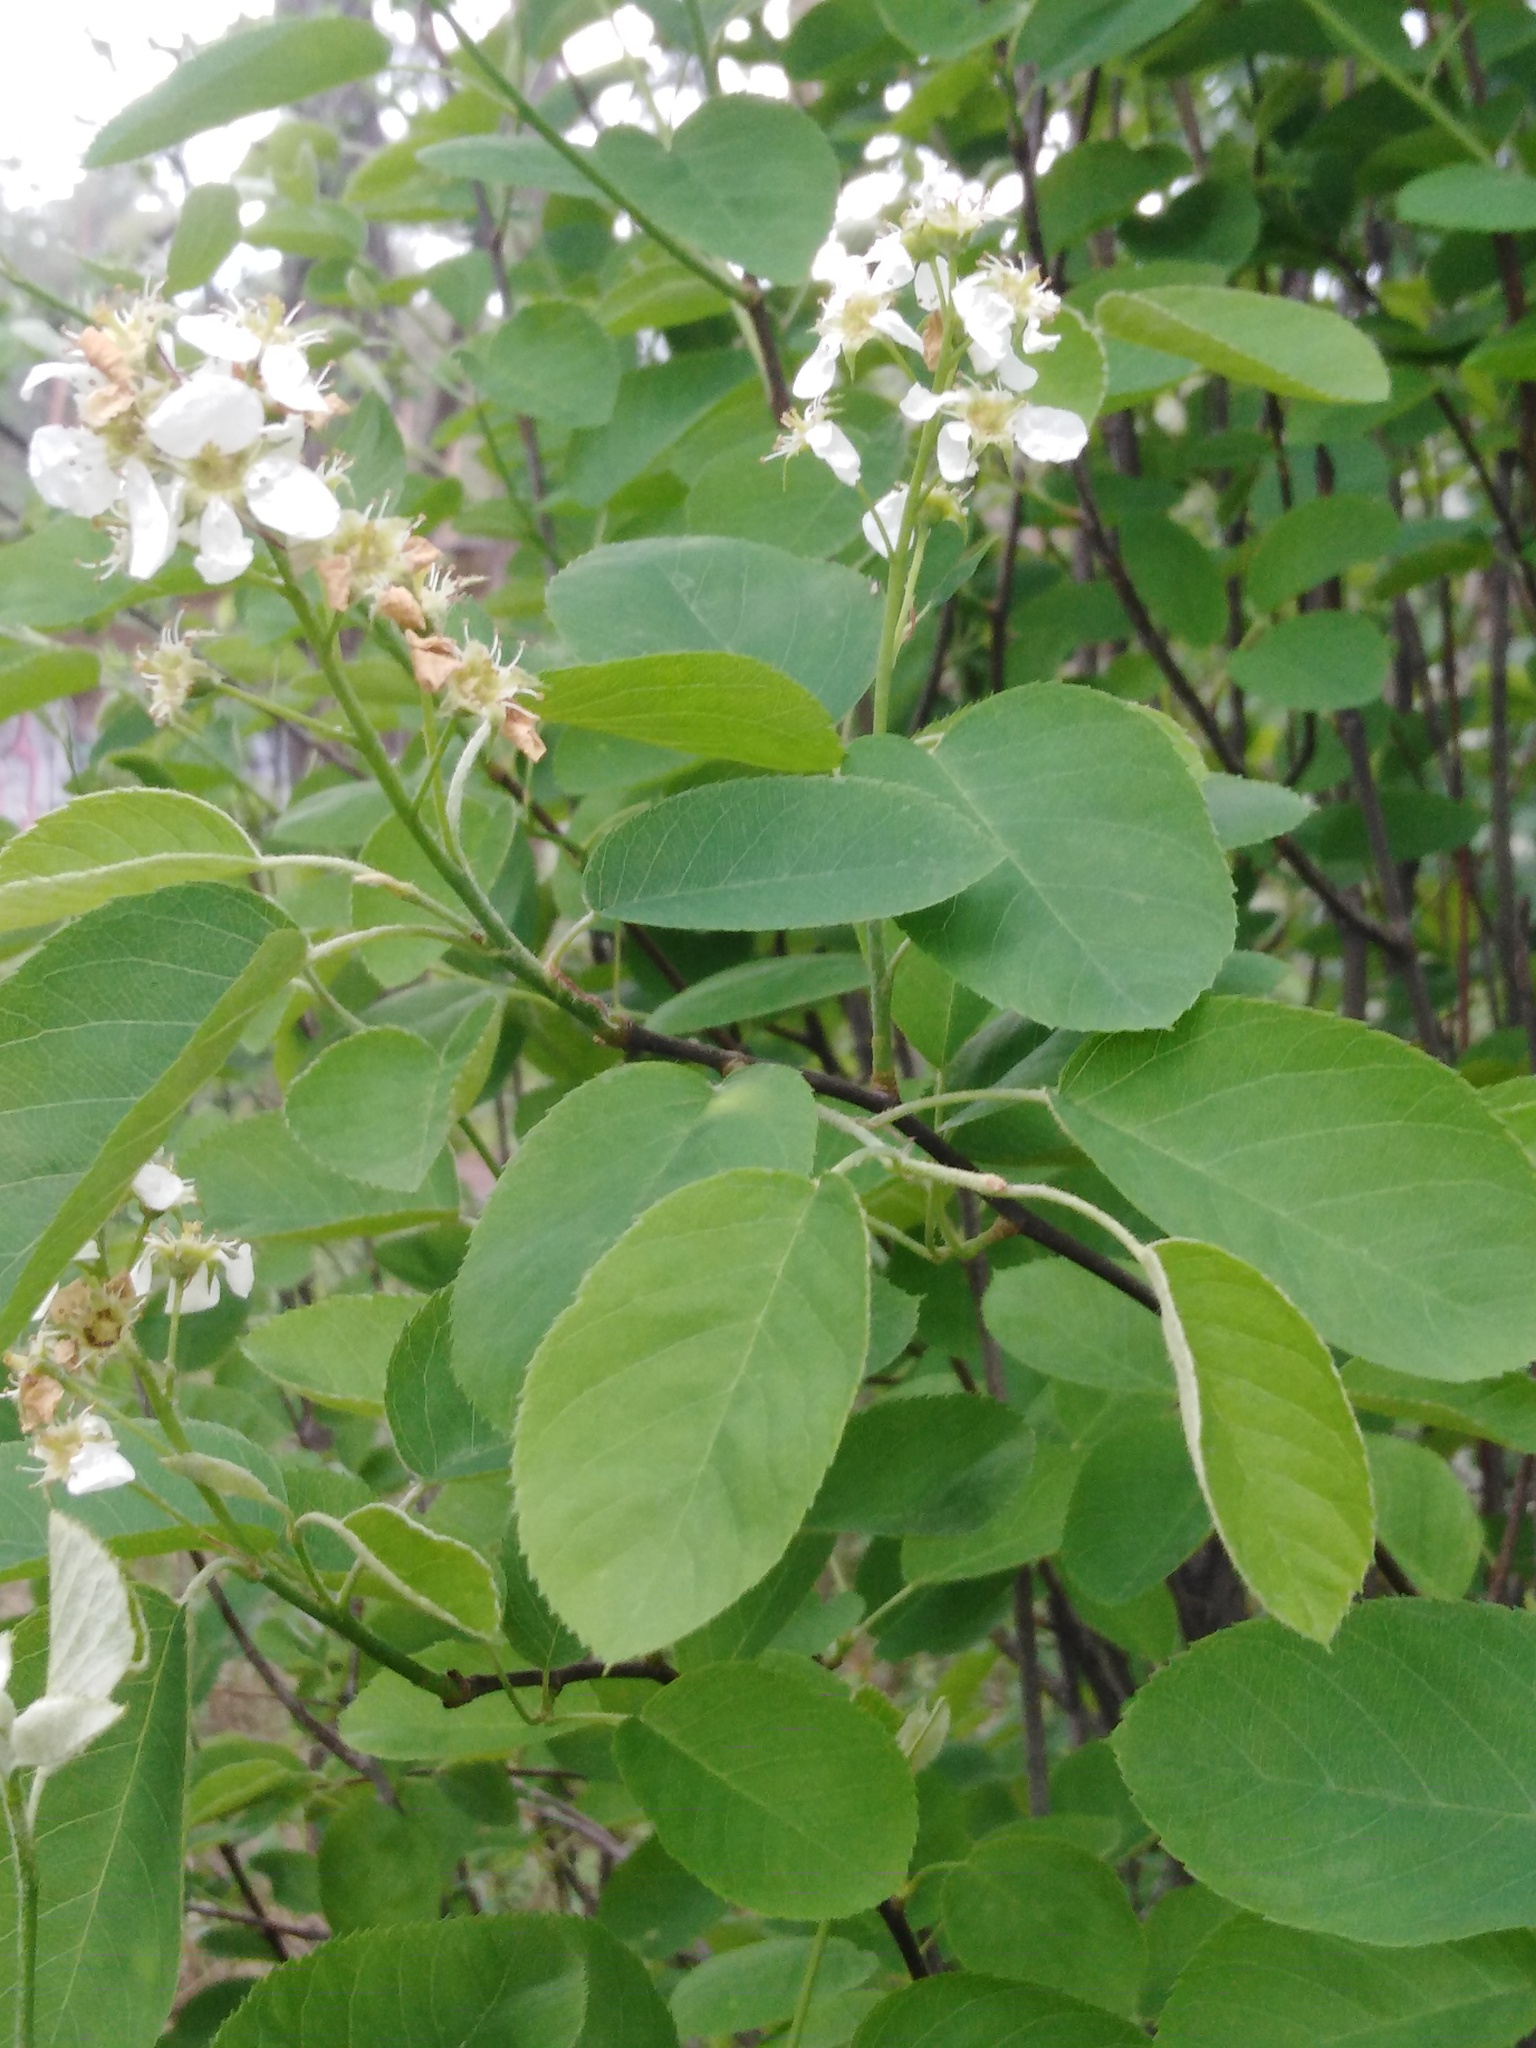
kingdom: Plantae
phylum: Tracheophyta
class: Magnoliopsida
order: Rosales
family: Rosaceae
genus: Amelanchier
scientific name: Amelanchier
